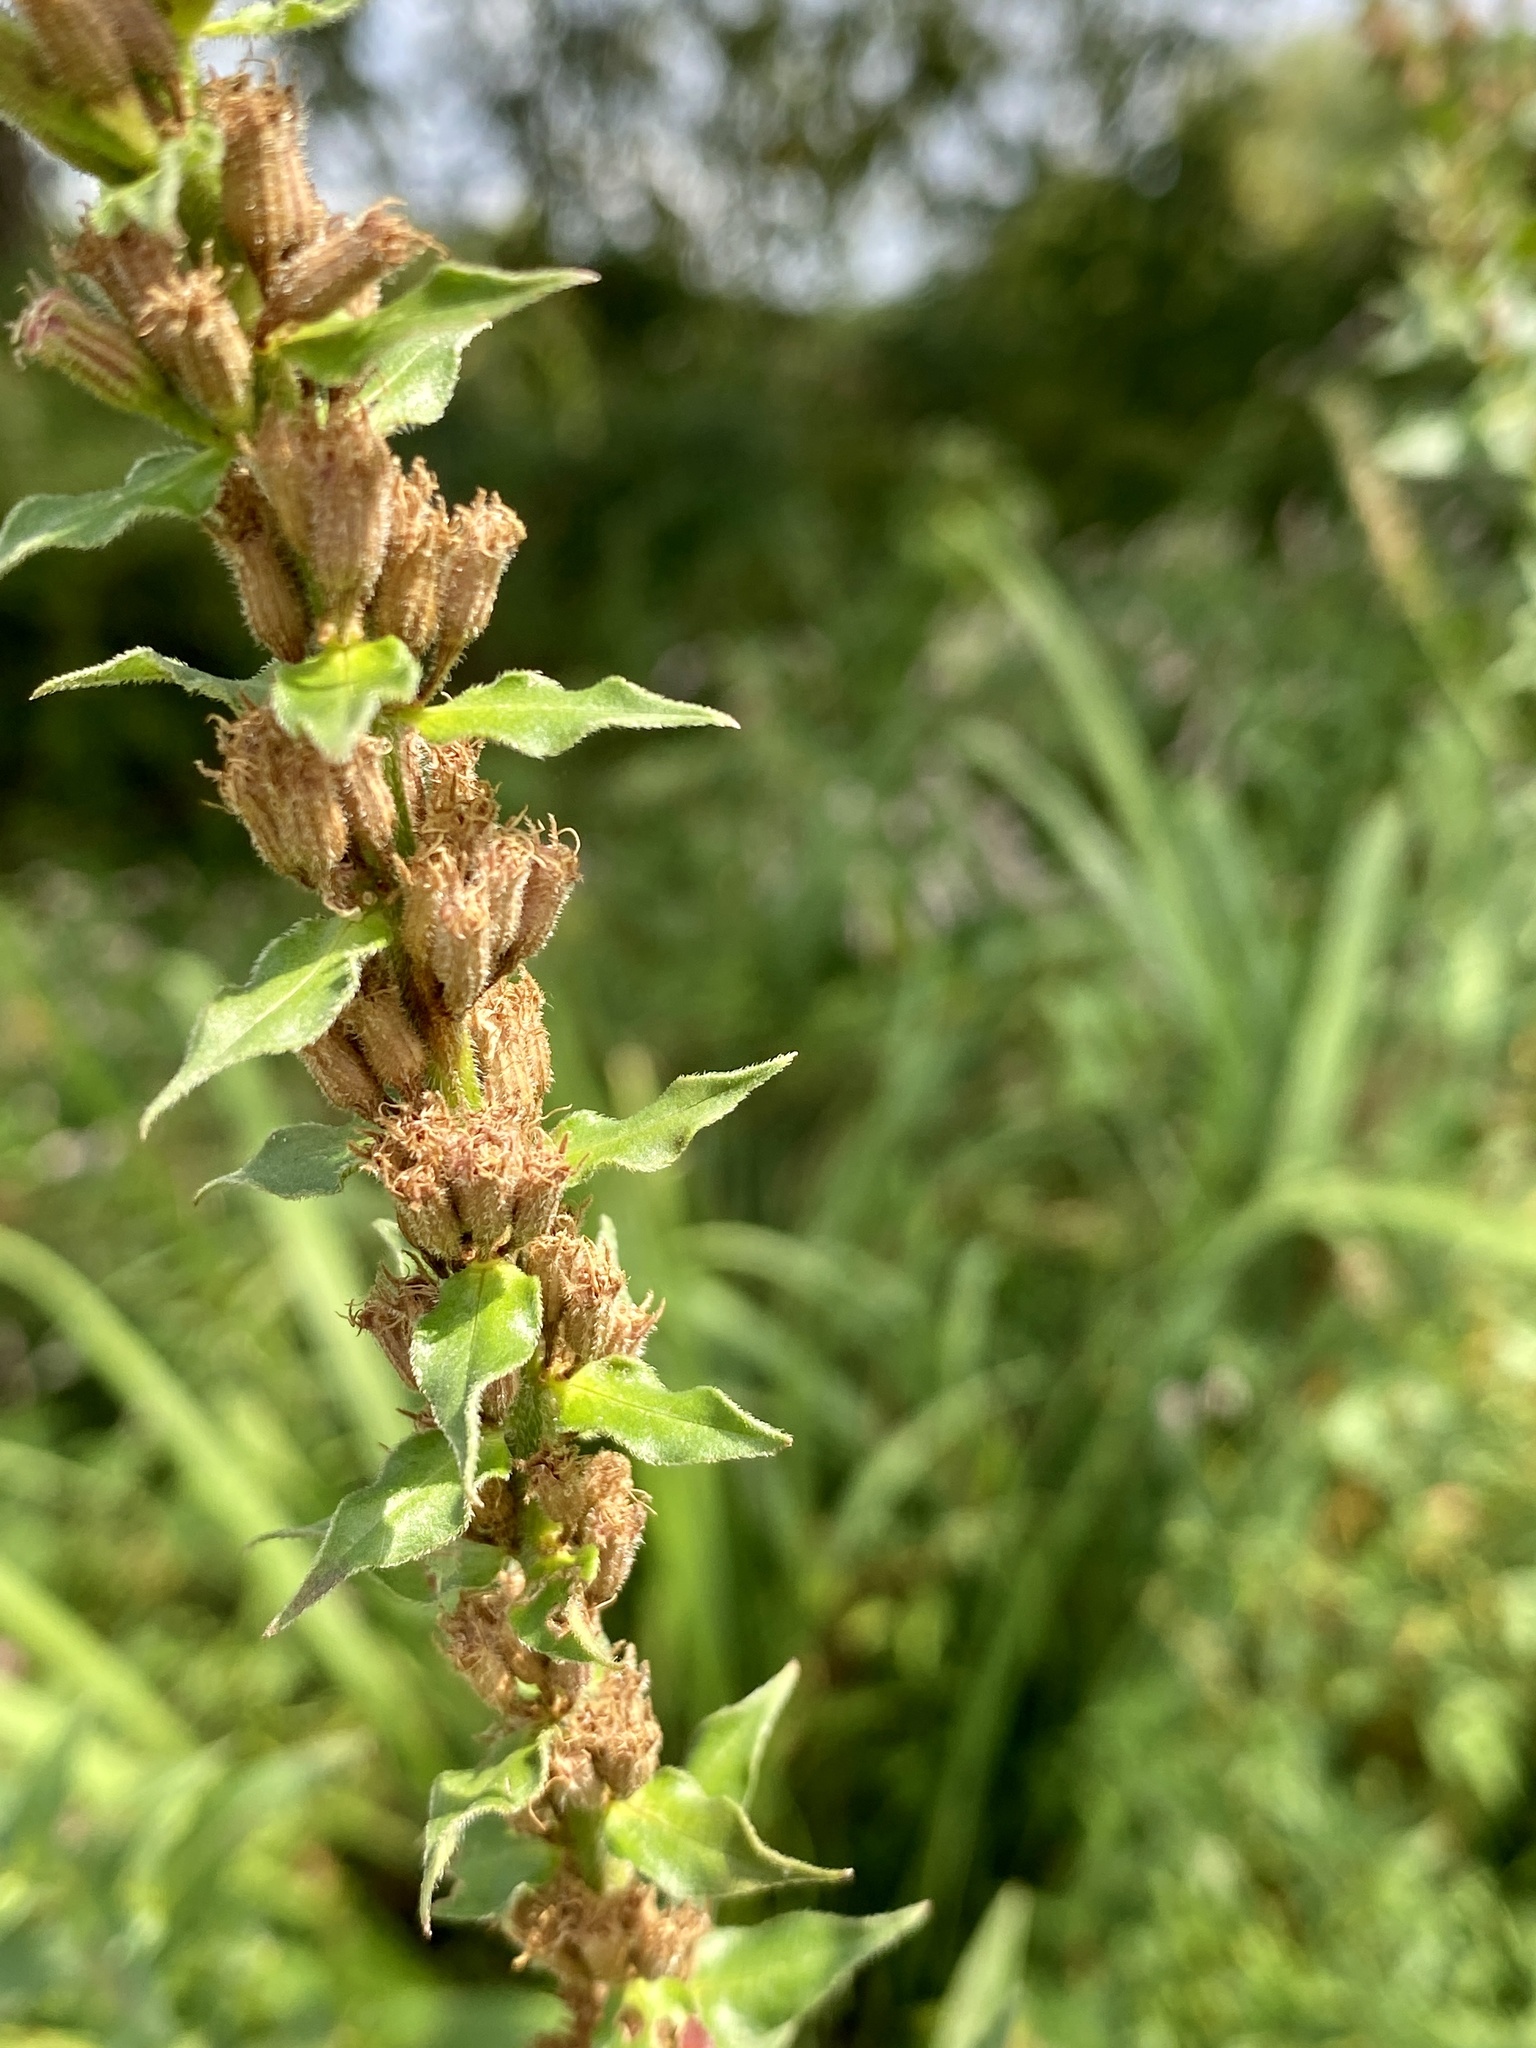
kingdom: Plantae
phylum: Tracheophyta
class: Magnoliopsida
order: Myrtales
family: Lythraceae
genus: Lythrum
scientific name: Lythrum salicaria
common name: Purple loosestrife
